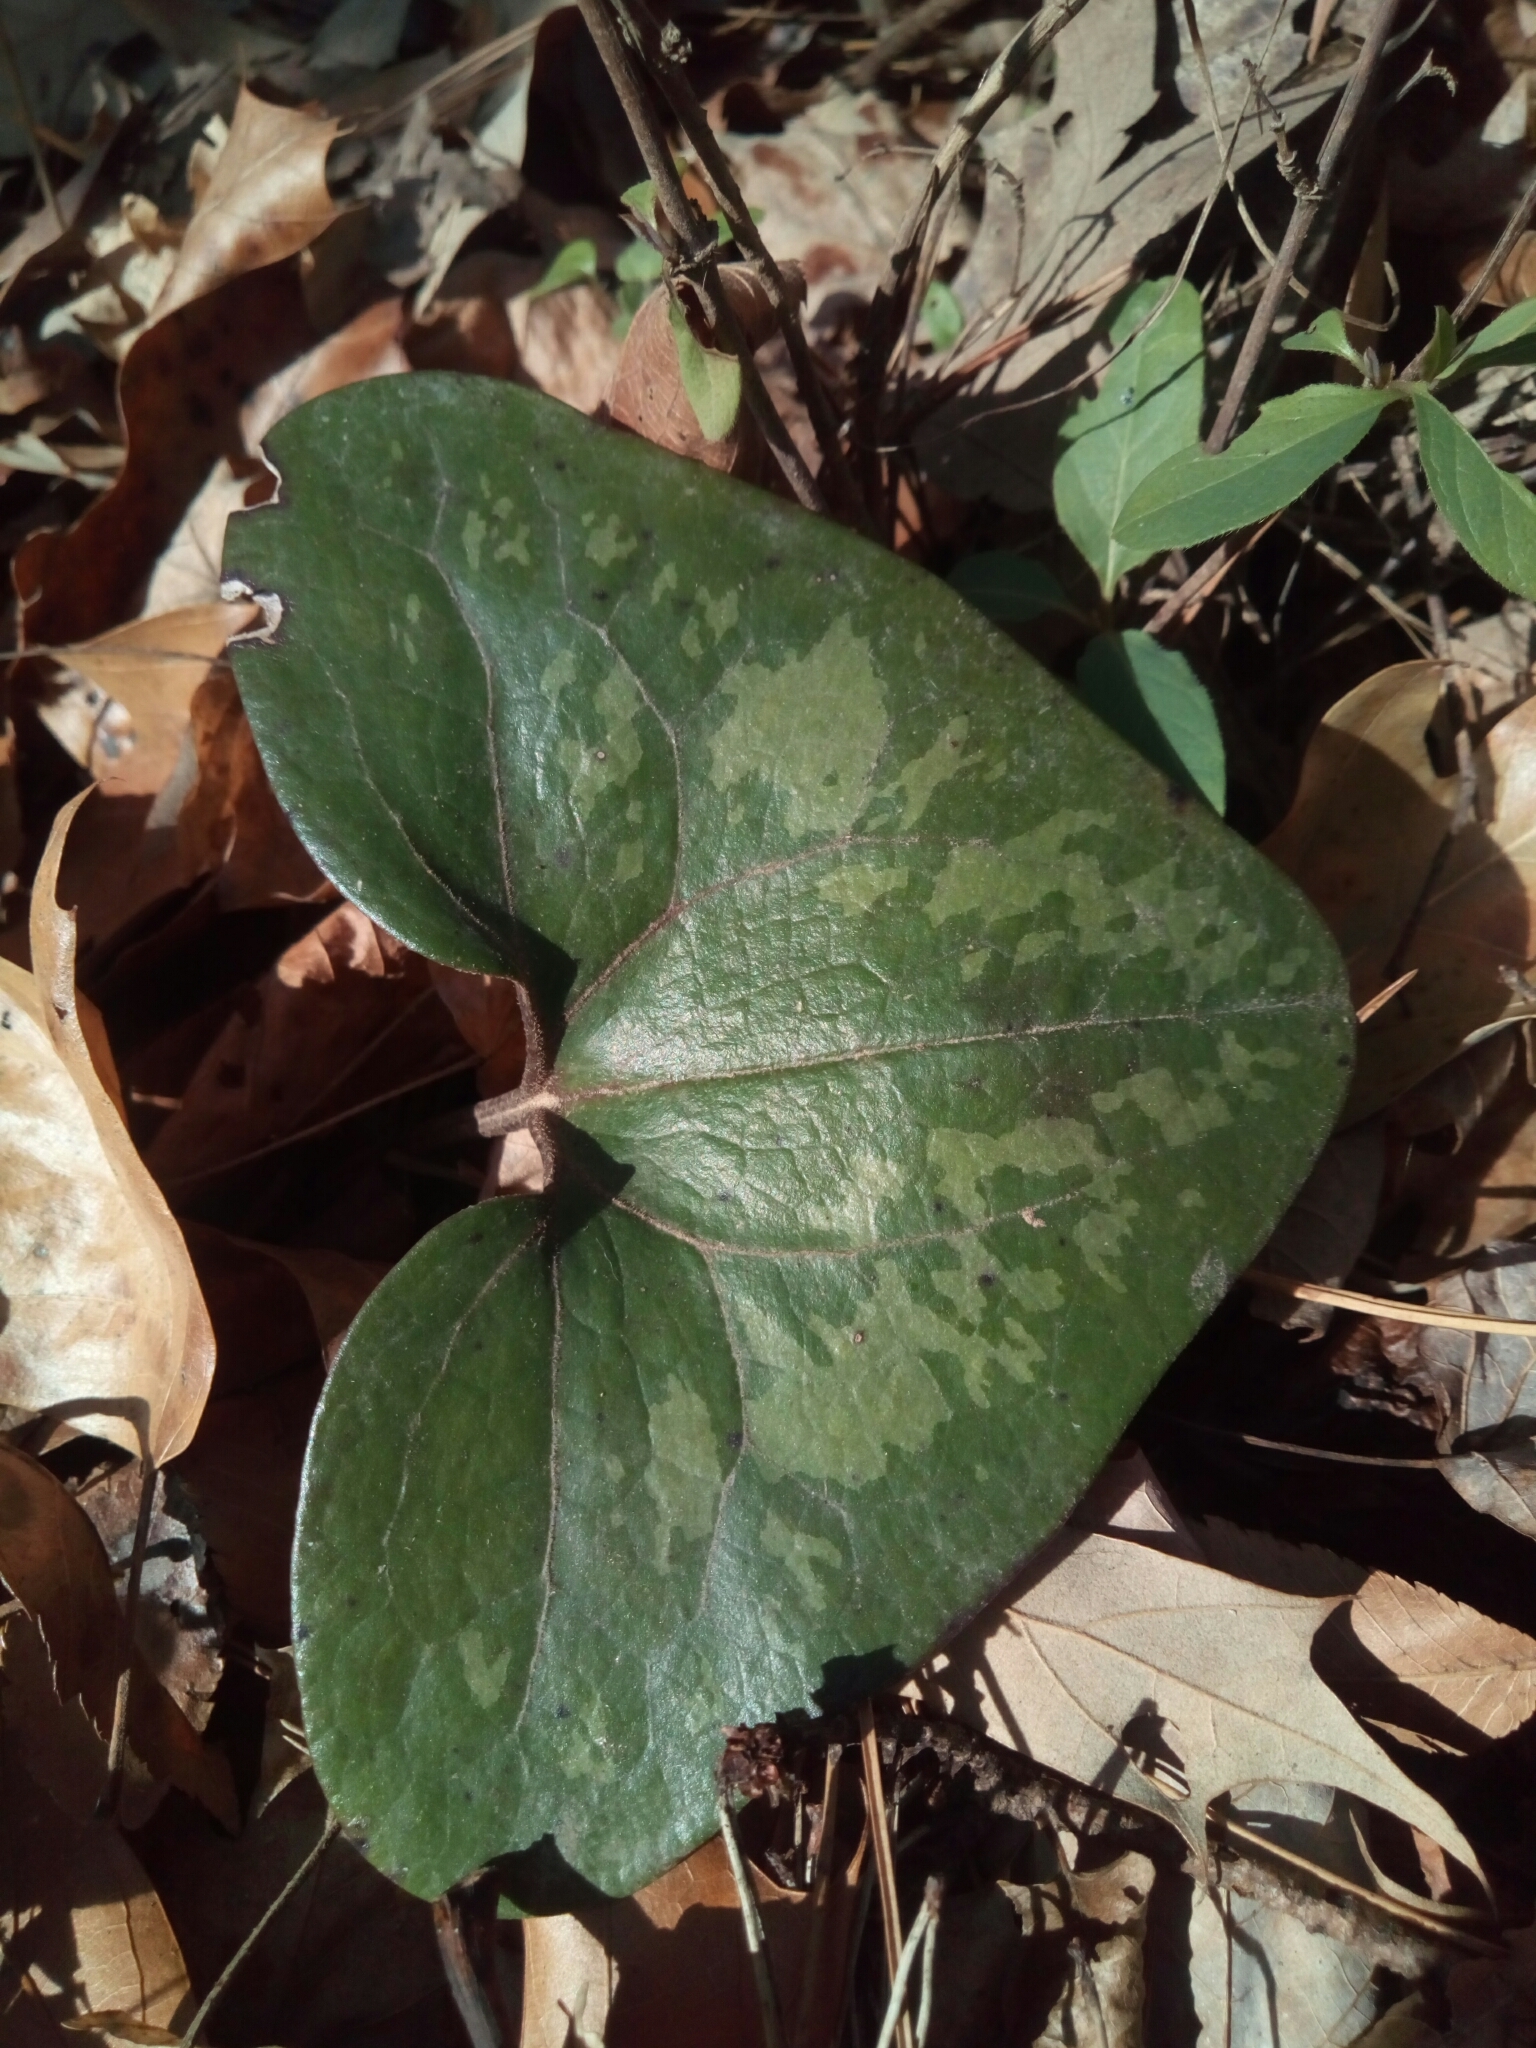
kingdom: Plantae
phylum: Tracheophyta
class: Magnoliopsida
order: Piperales
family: Aristolochiaceae
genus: Hexastylis
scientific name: Hexastylis arifolia
